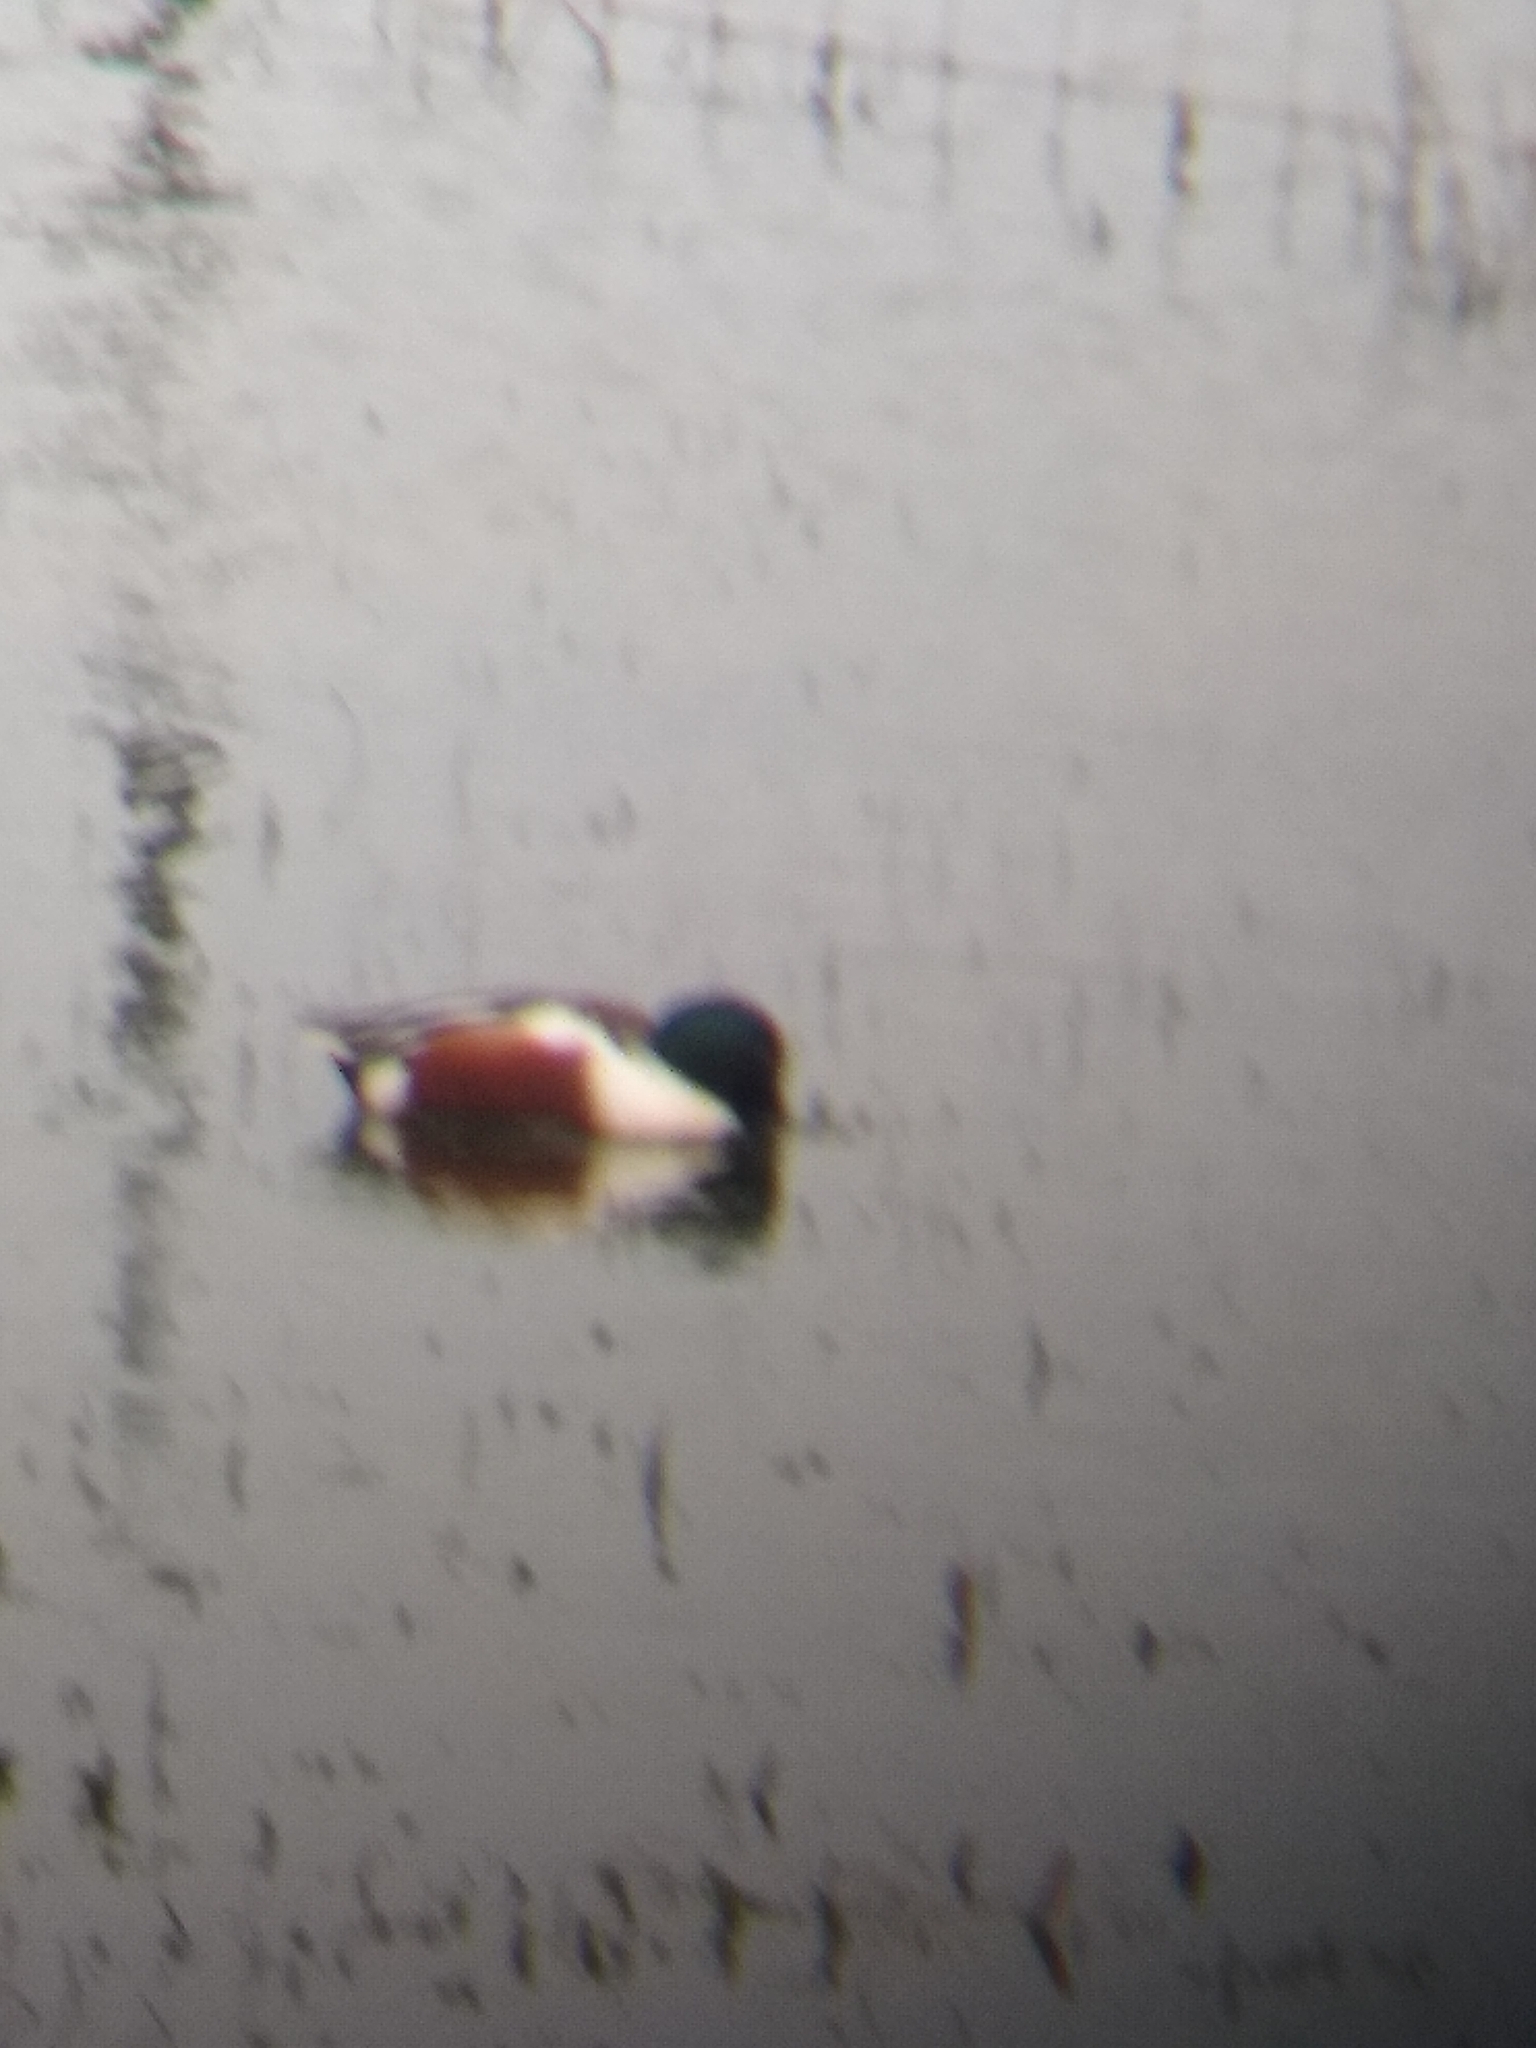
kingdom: Animalia
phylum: Chordata
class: Aves
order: Anseriformes
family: Anatidae
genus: Spatula
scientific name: Spatula clypeata
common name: Northern shoveler
